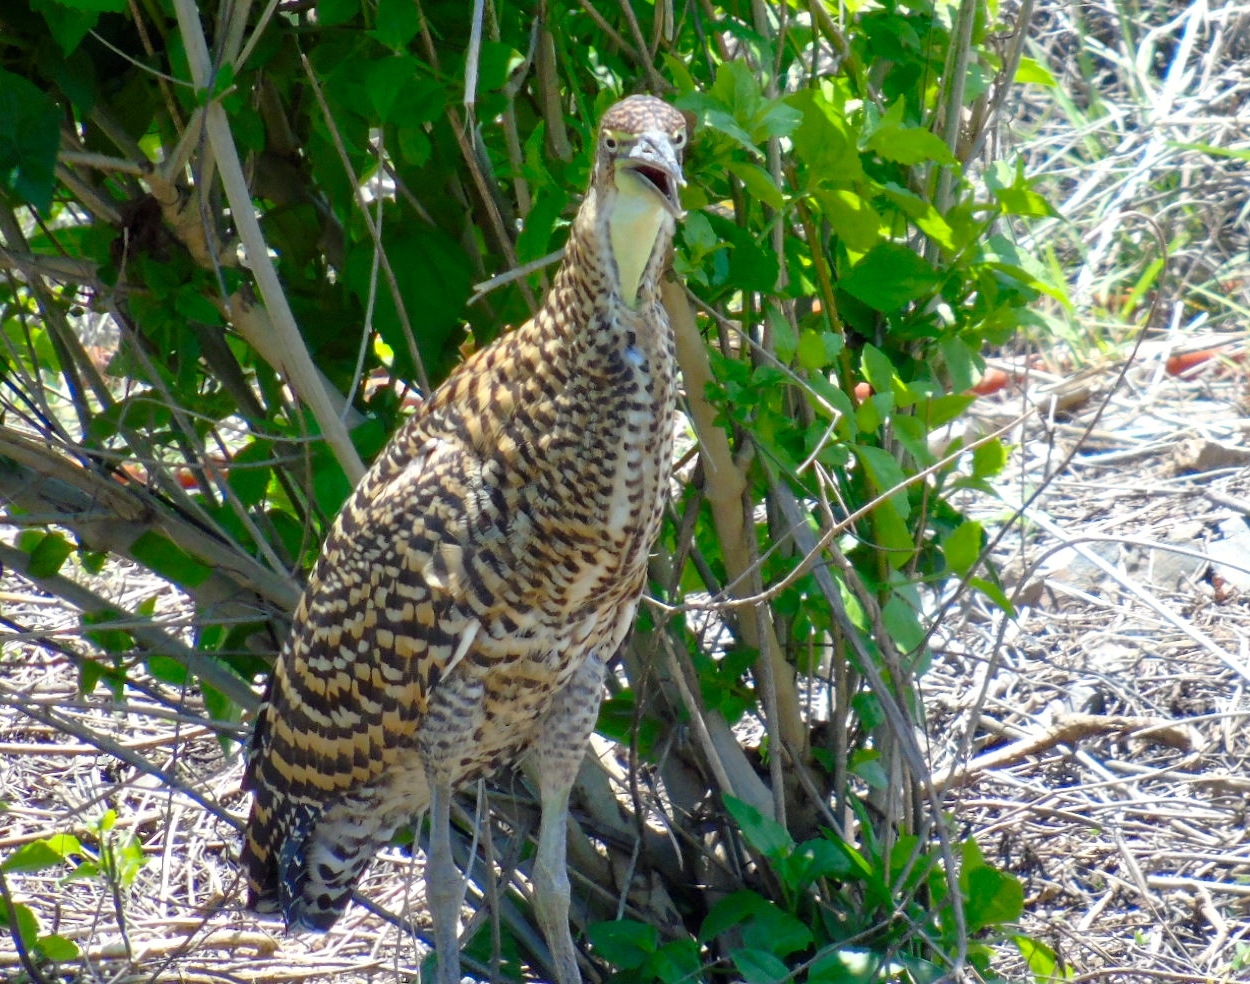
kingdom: Animalia
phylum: Chordata
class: Aves
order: Pelecaniformes
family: Ardeidae
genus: Tigrisoma
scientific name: Tigrisoma mexicanum
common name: Bare-throated tiger-heron
